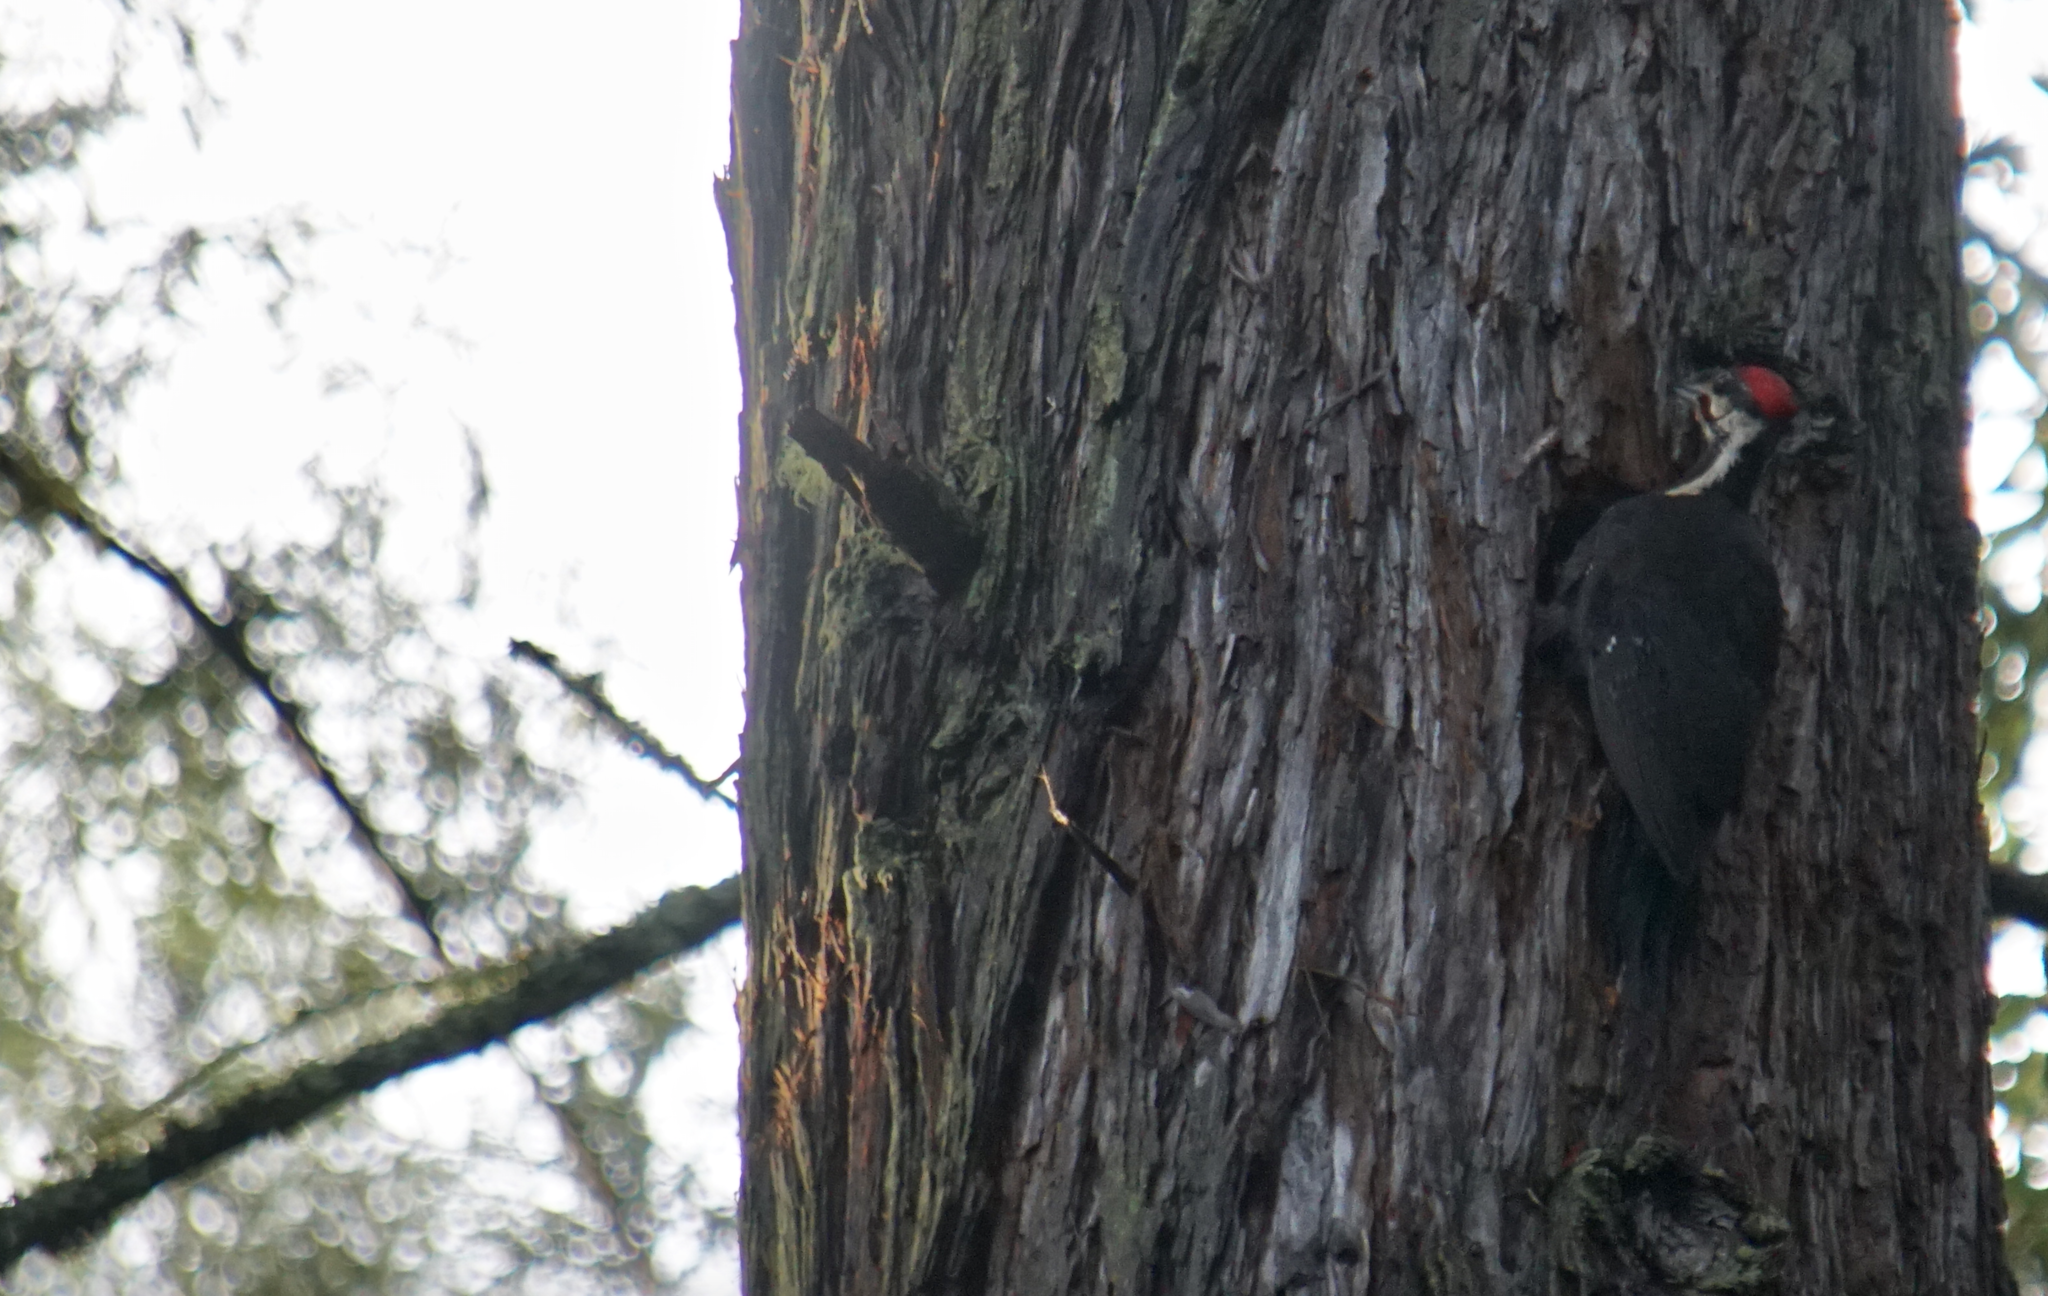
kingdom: Animalia
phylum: Chordata
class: Aves
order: Piciformes
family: Picidae
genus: Dryocopus
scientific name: Dryocopus pileatus
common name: Pileated woodpecker
